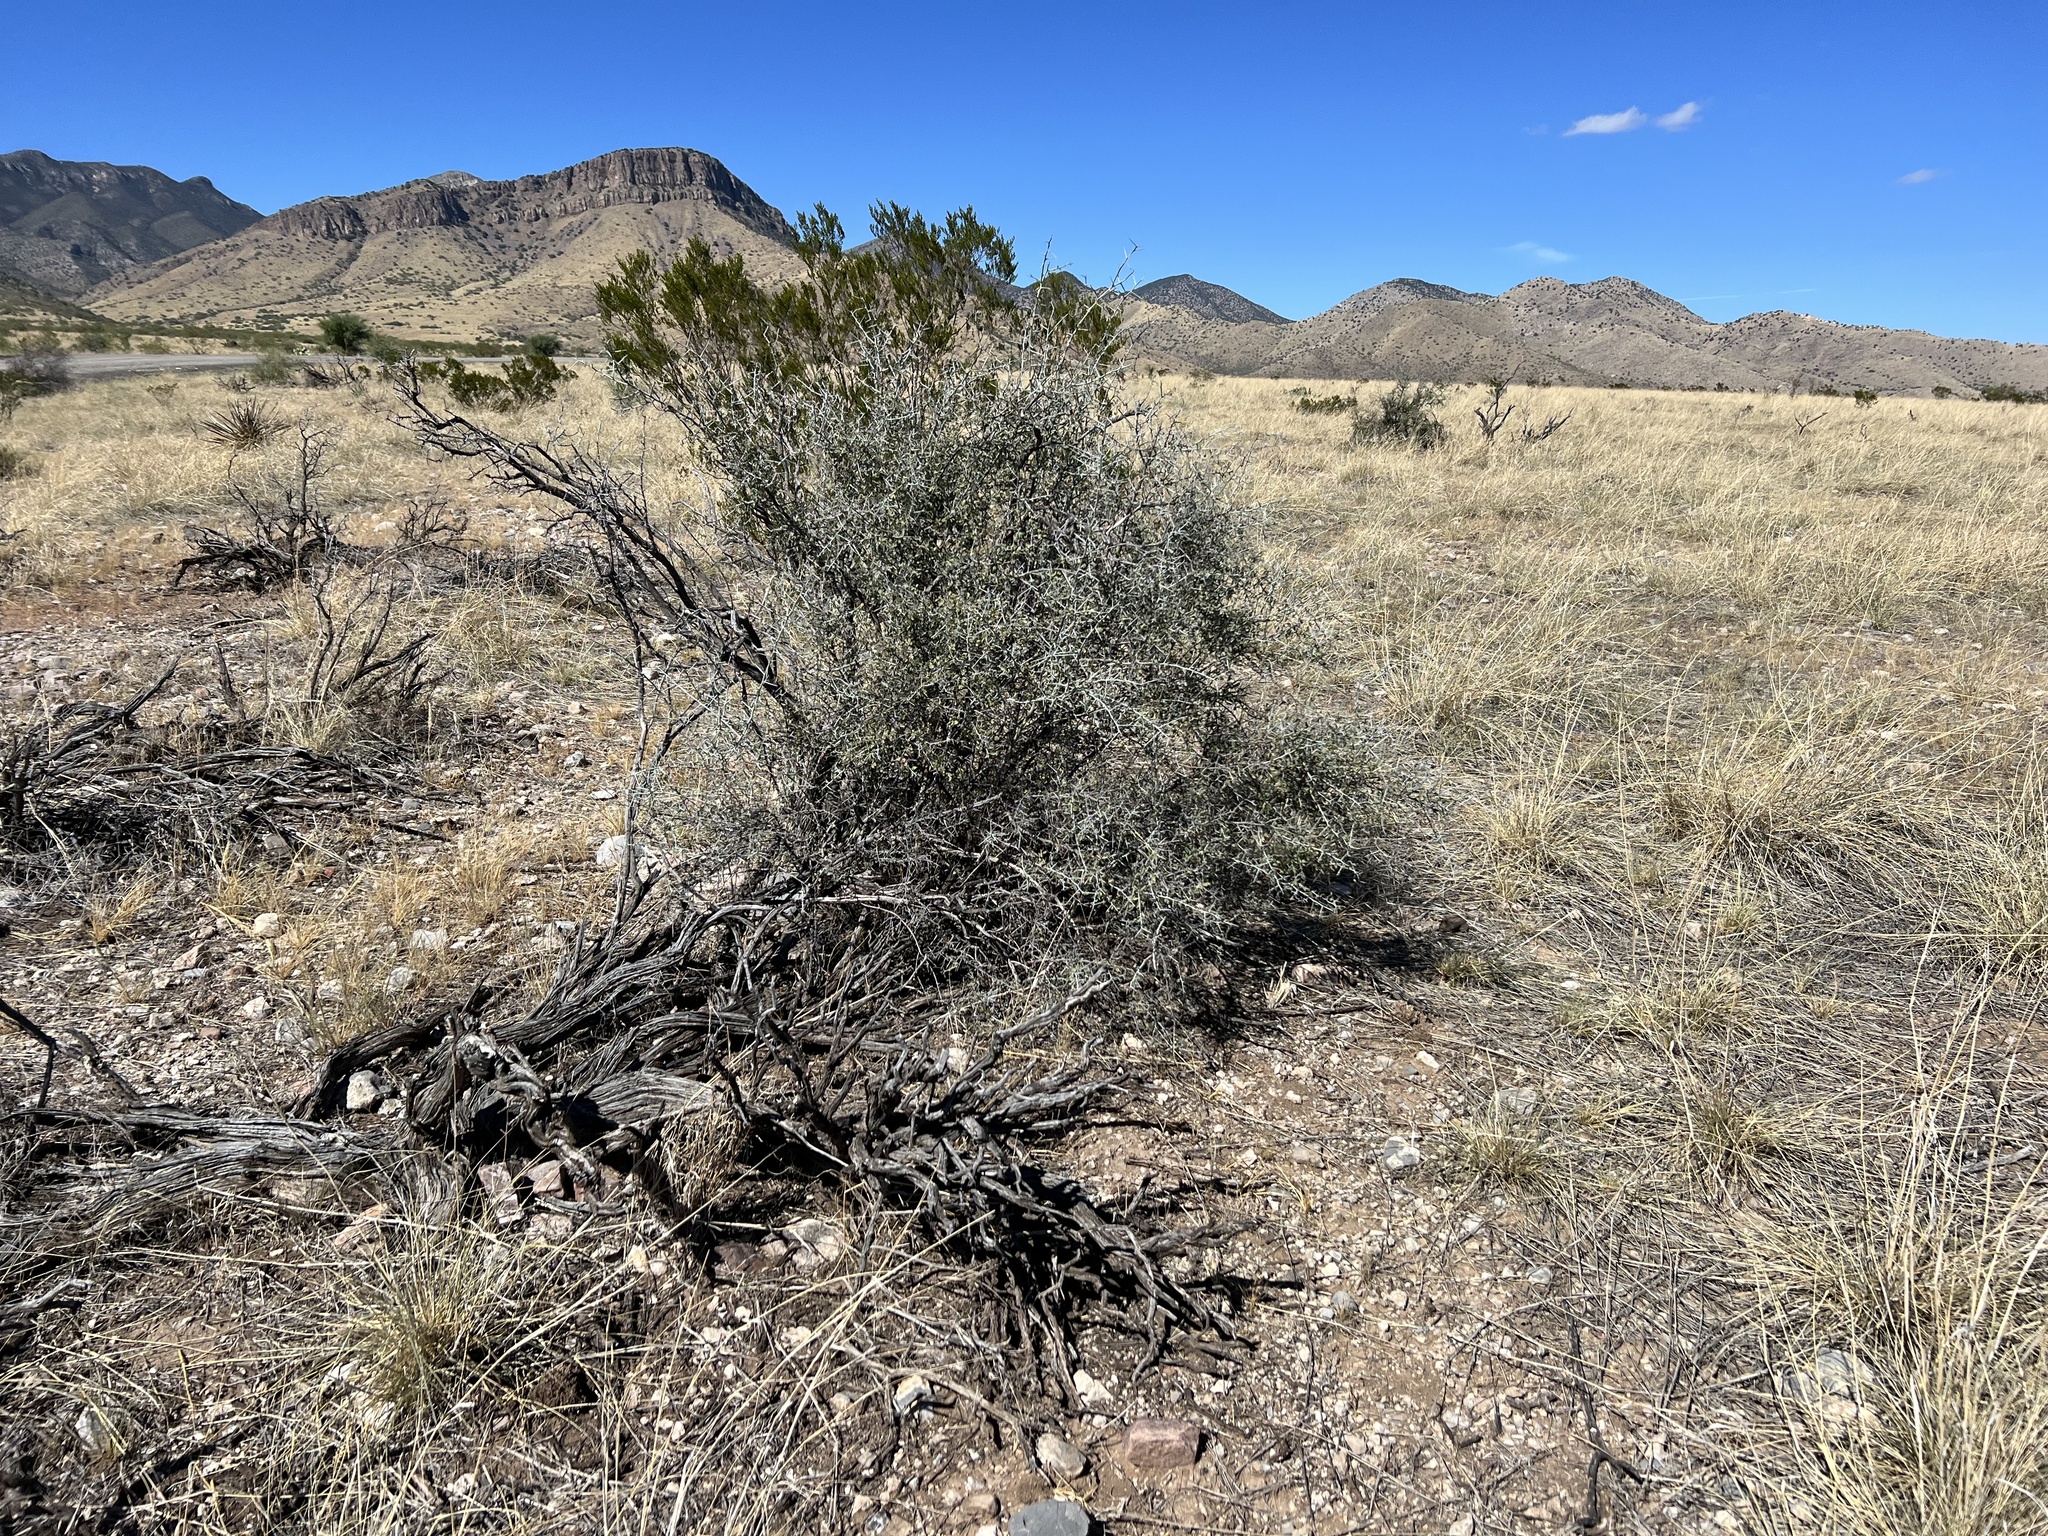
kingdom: Plantae
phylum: Tracheophyta
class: Magnoliopsida
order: Rosales
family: Rhamnaceae
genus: Sarcomphalus
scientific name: Sarcomphalus obtusifolius
